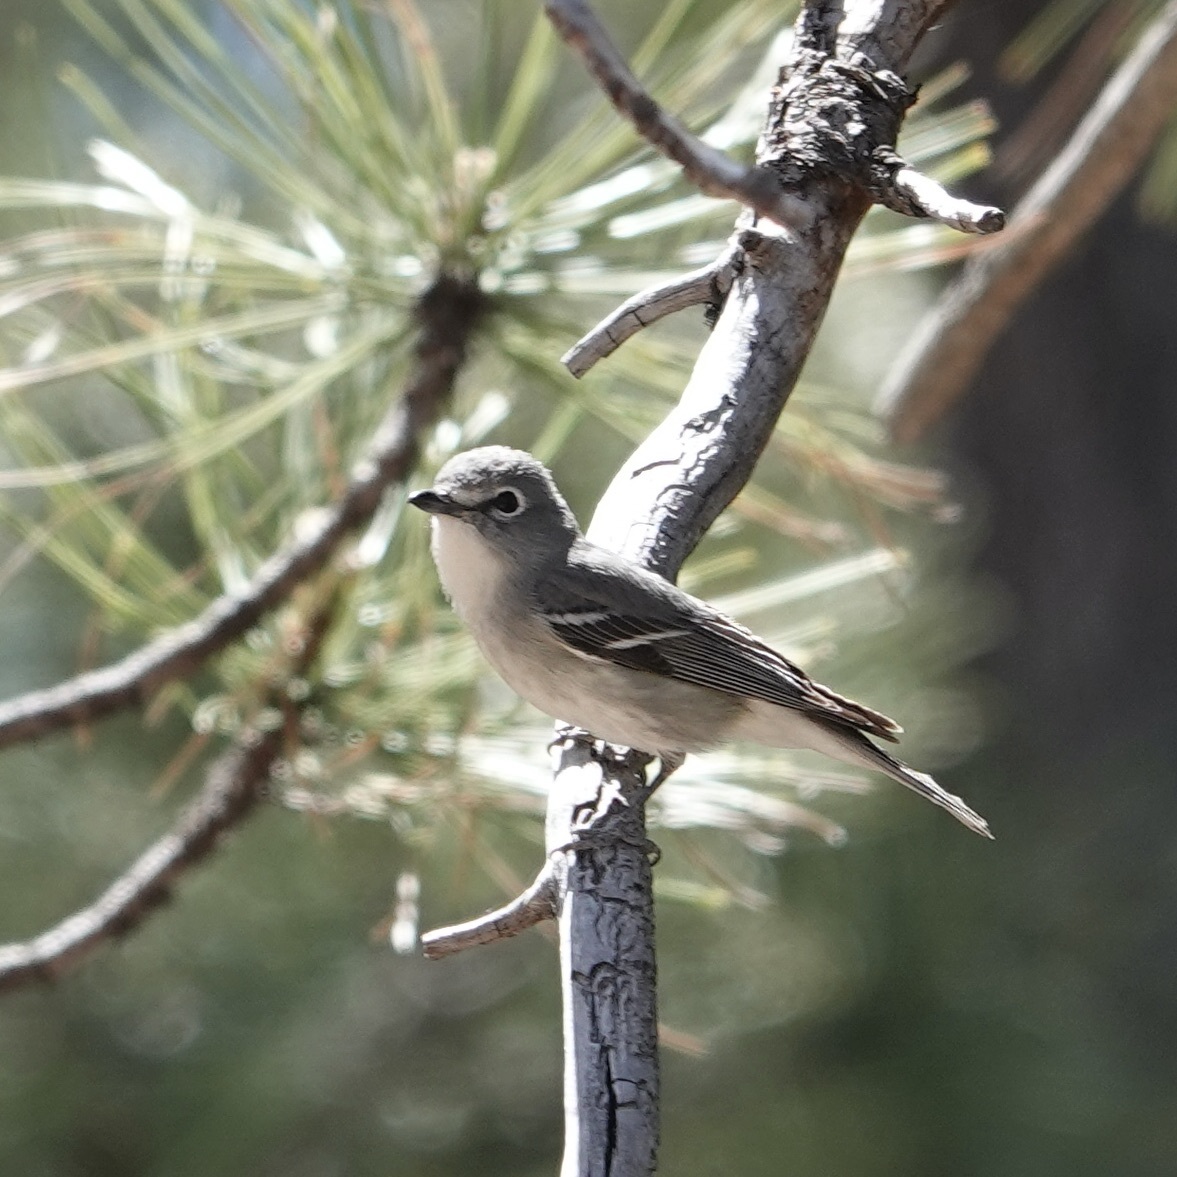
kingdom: Animalia
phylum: Chordata
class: Aves
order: Passeriformes
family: Vireonidae
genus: Vireo
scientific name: Vireo plumbeus
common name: Plumbeous vireo
